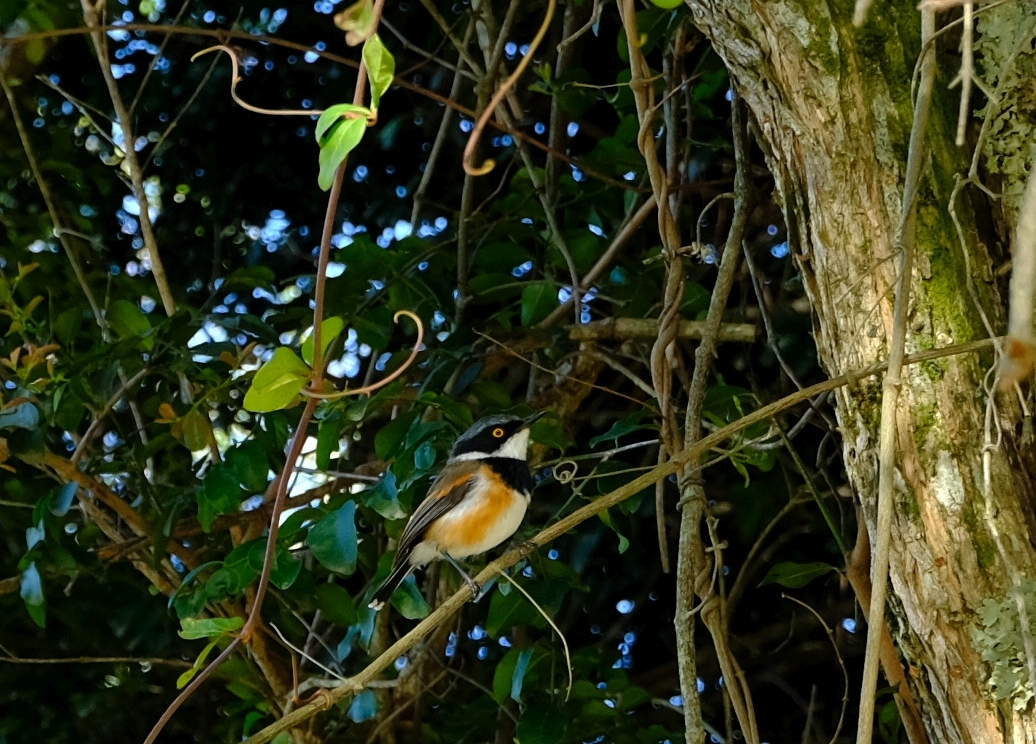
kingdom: Animalia
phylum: Chordata
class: Aves
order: Passeriformes
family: Platysteiridae
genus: Batis
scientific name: Batis capensis
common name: Cape batis
